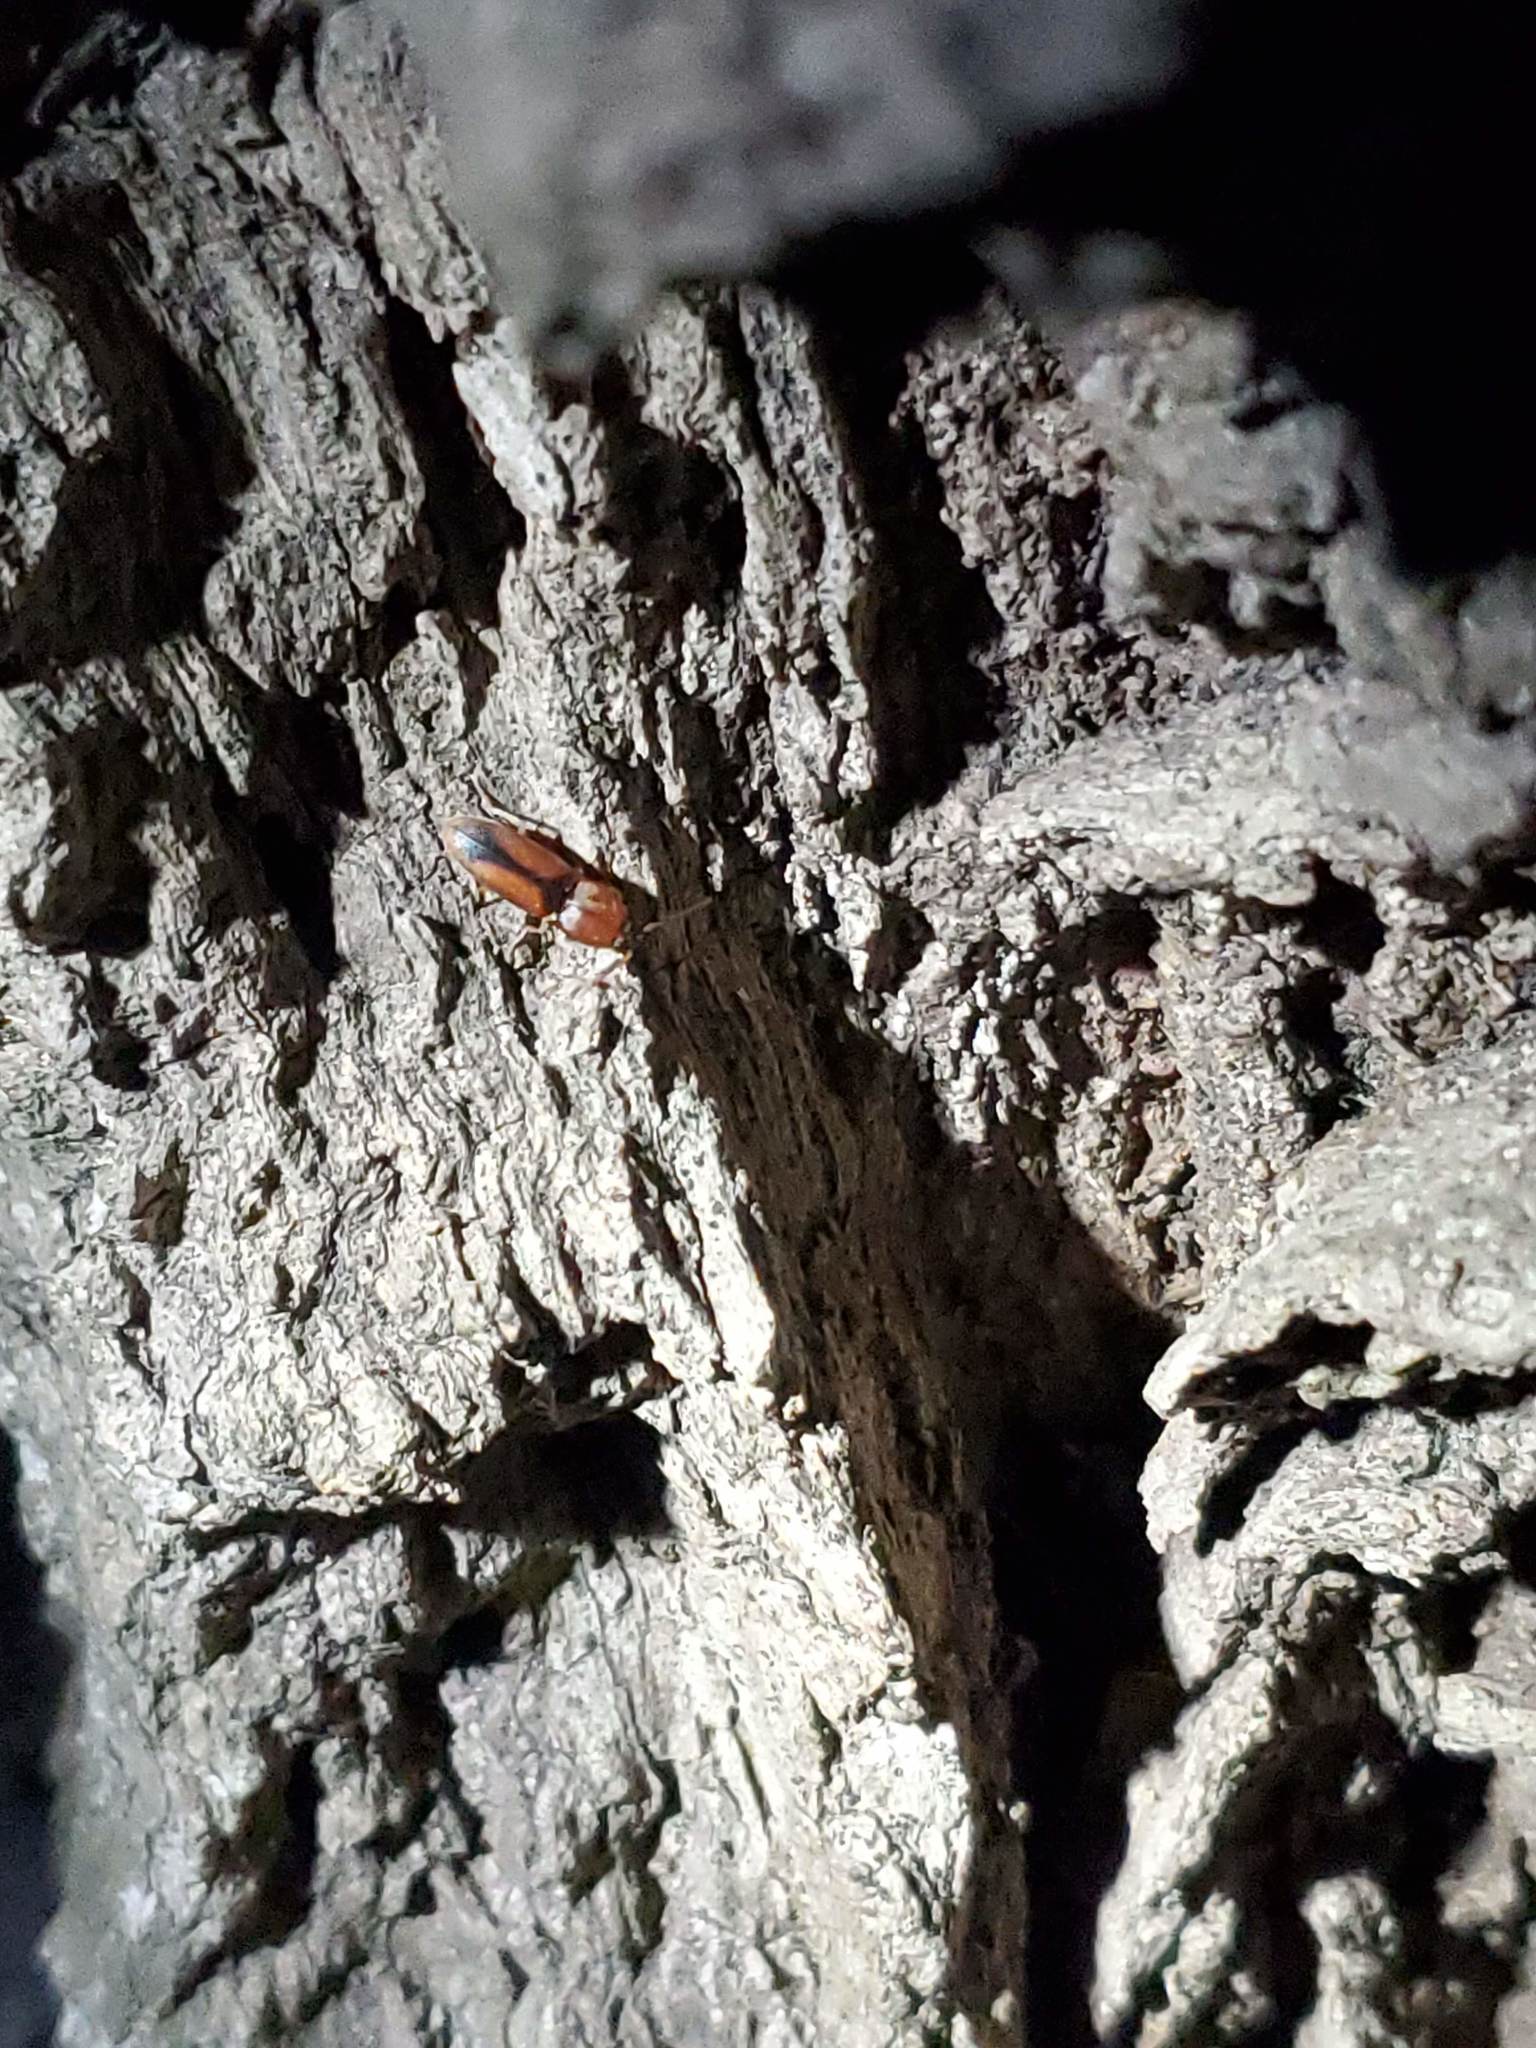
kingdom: Animalia
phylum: Arthropoda
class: Insecta
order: Coleoptera
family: Elateridae
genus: Monocrepidius
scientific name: Monocrepidius
